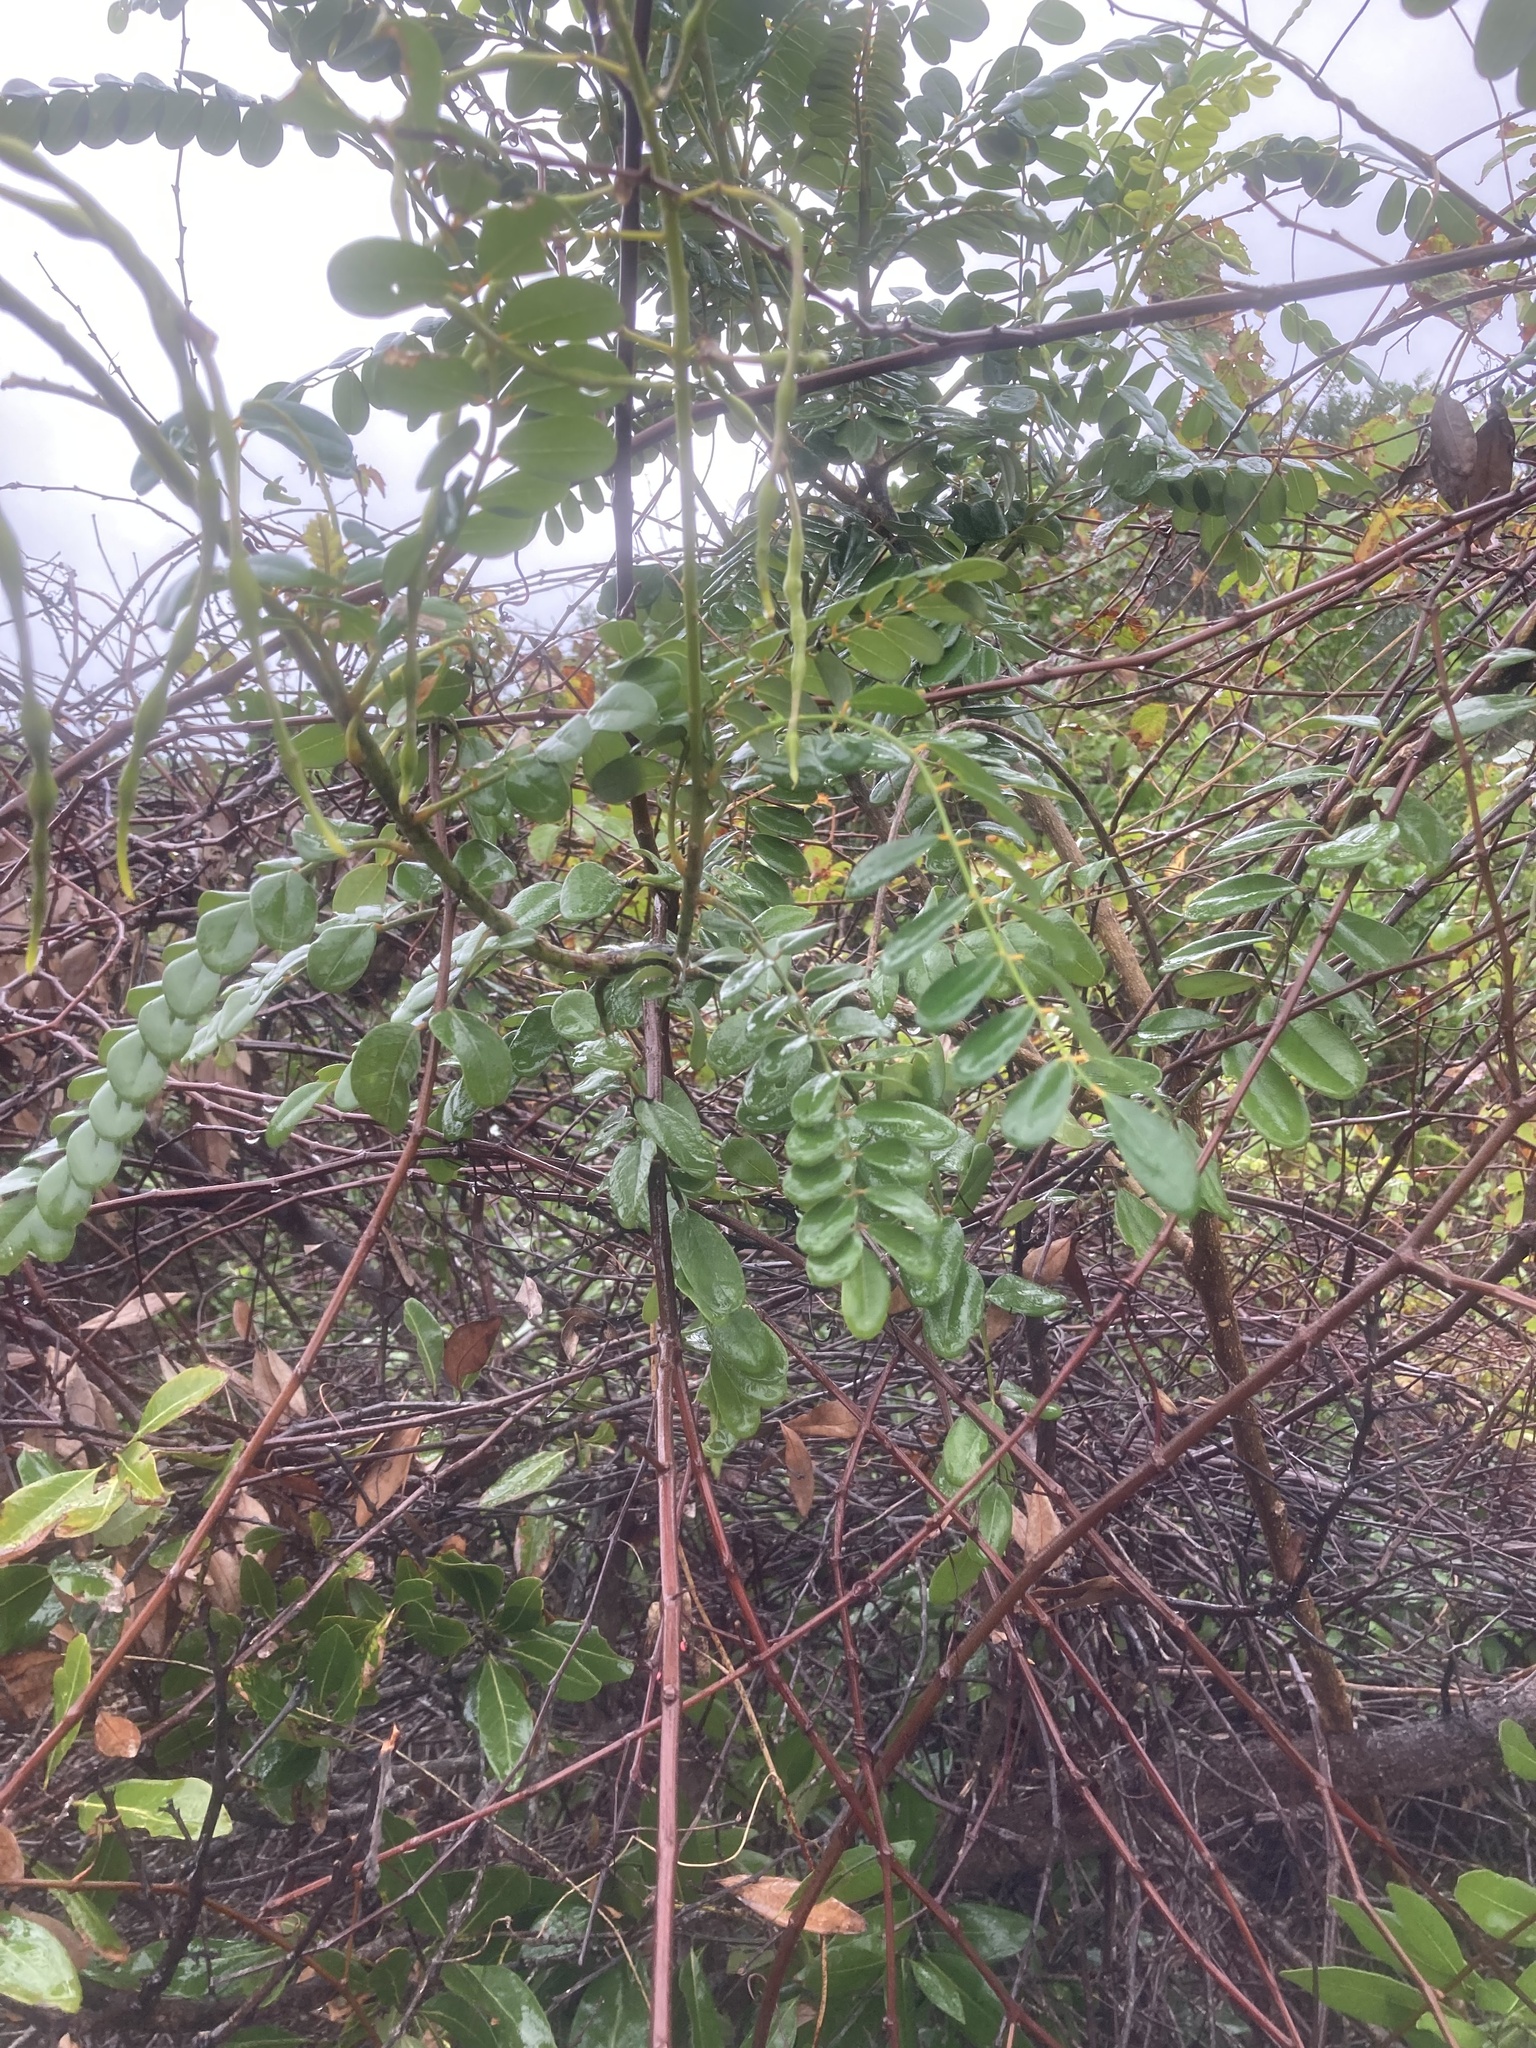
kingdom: Plantae
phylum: Tracheophyta
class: Magnoliopsida
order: Fabales
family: Fabaceae
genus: Sophora
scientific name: Sophora tomentosa
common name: Yellow necklacepod
